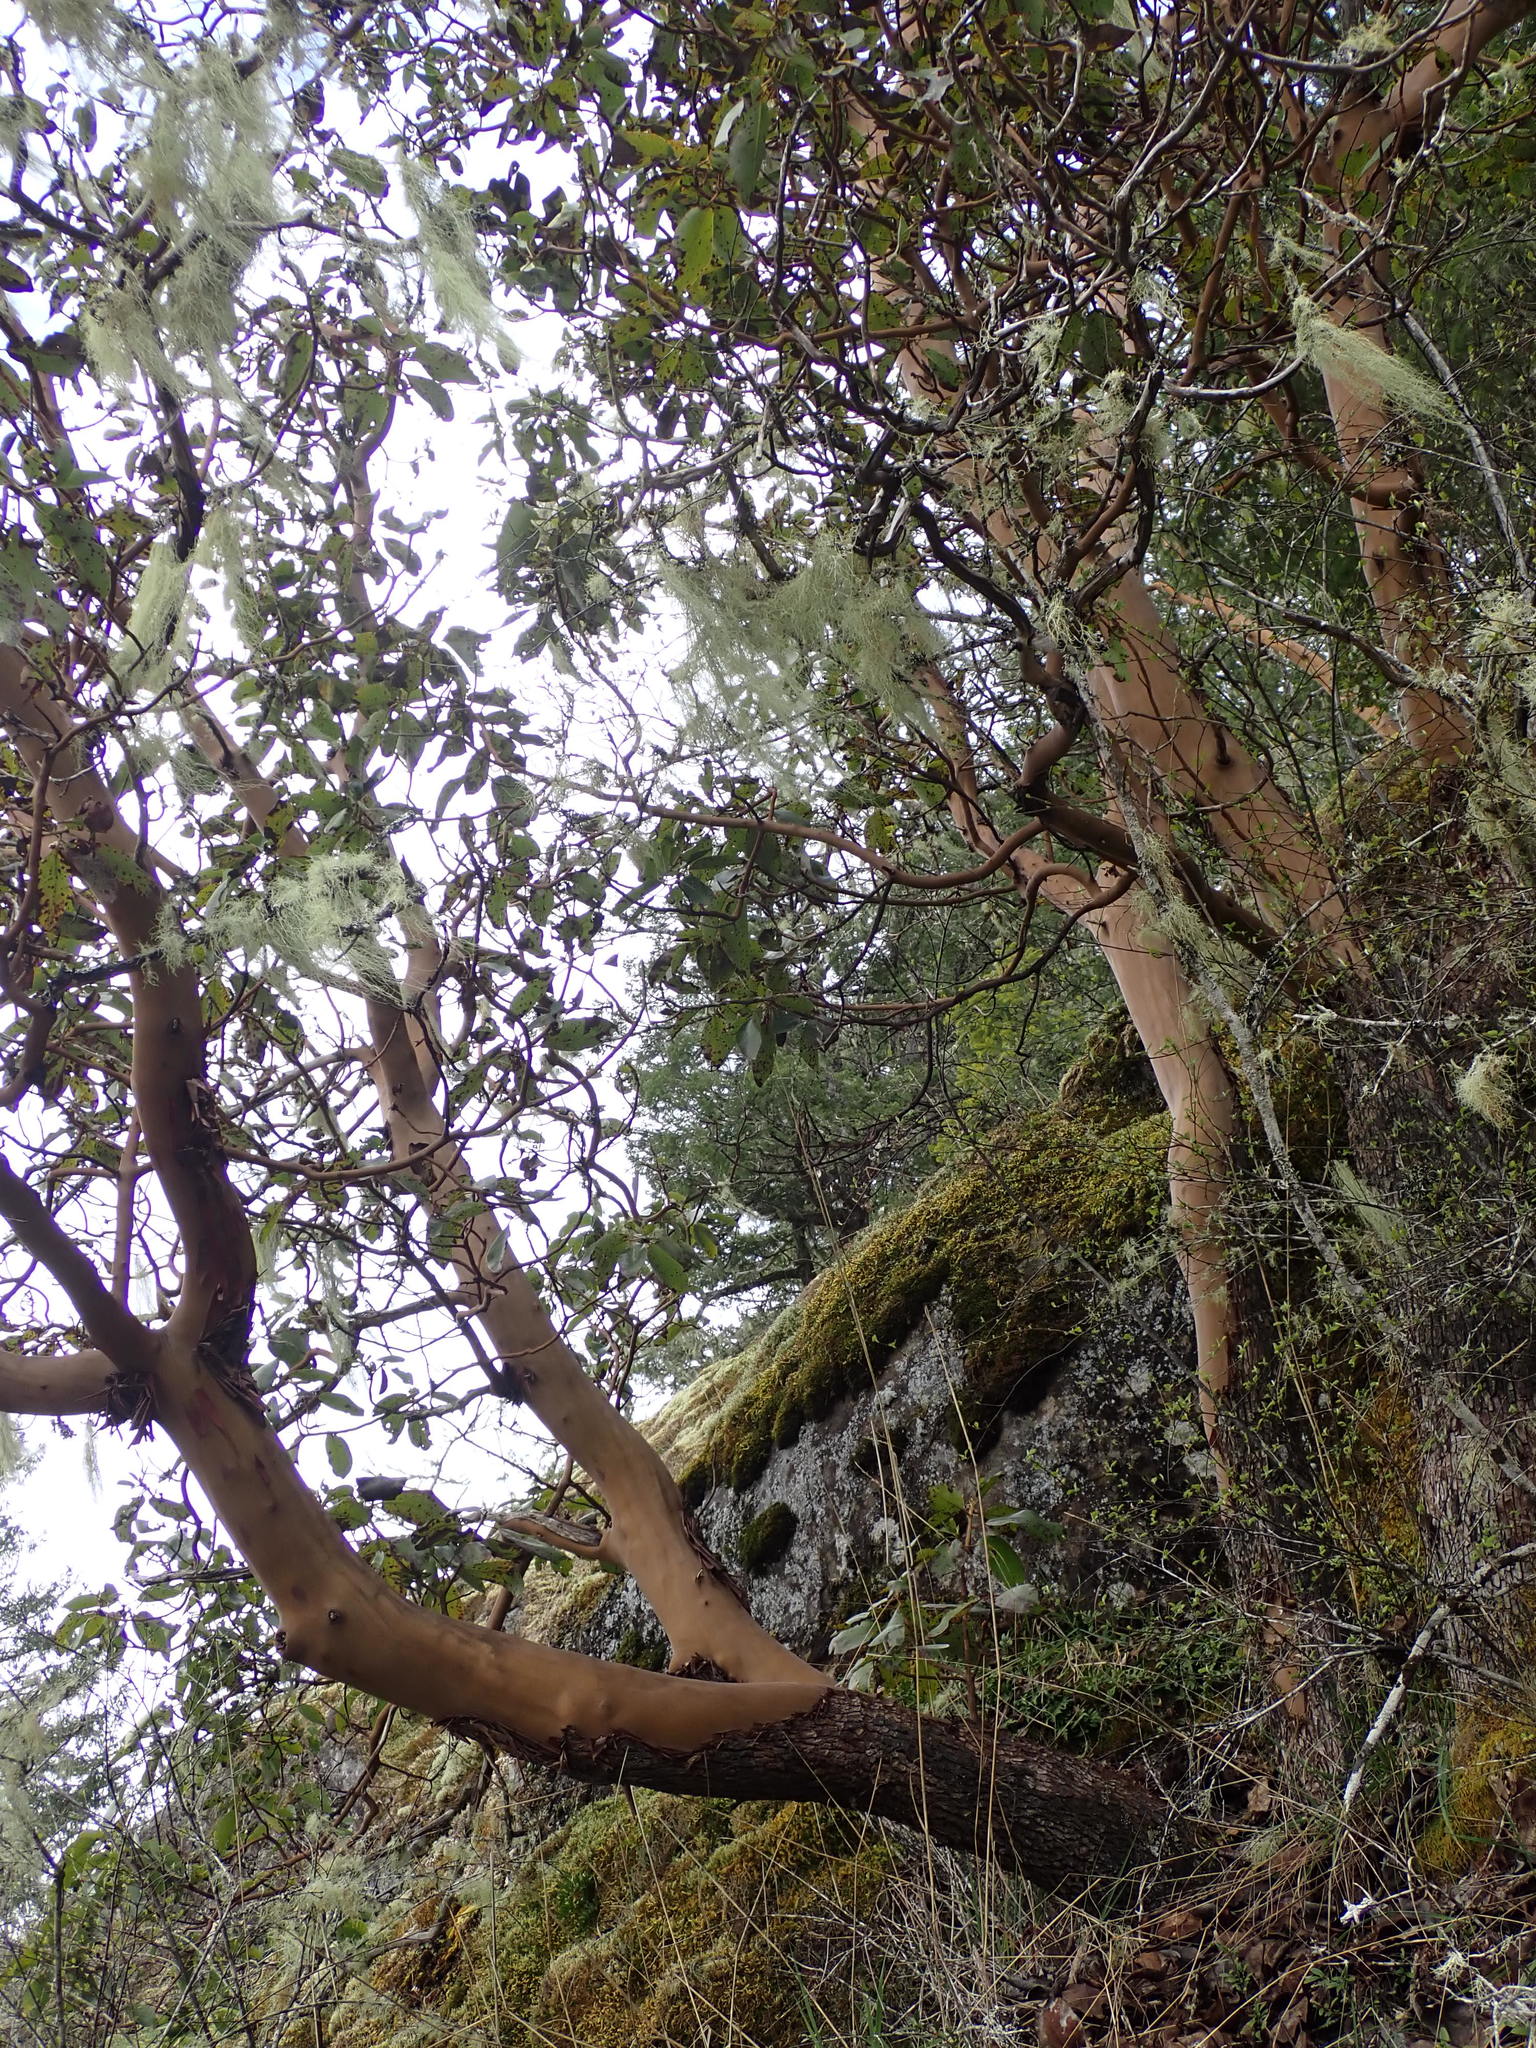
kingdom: Plantae
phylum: Tracheophyta
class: Magnoliopsida
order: Ericales
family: Ericaceae
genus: Arbutus
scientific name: Arbutus menziesii
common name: Pacific madrone
